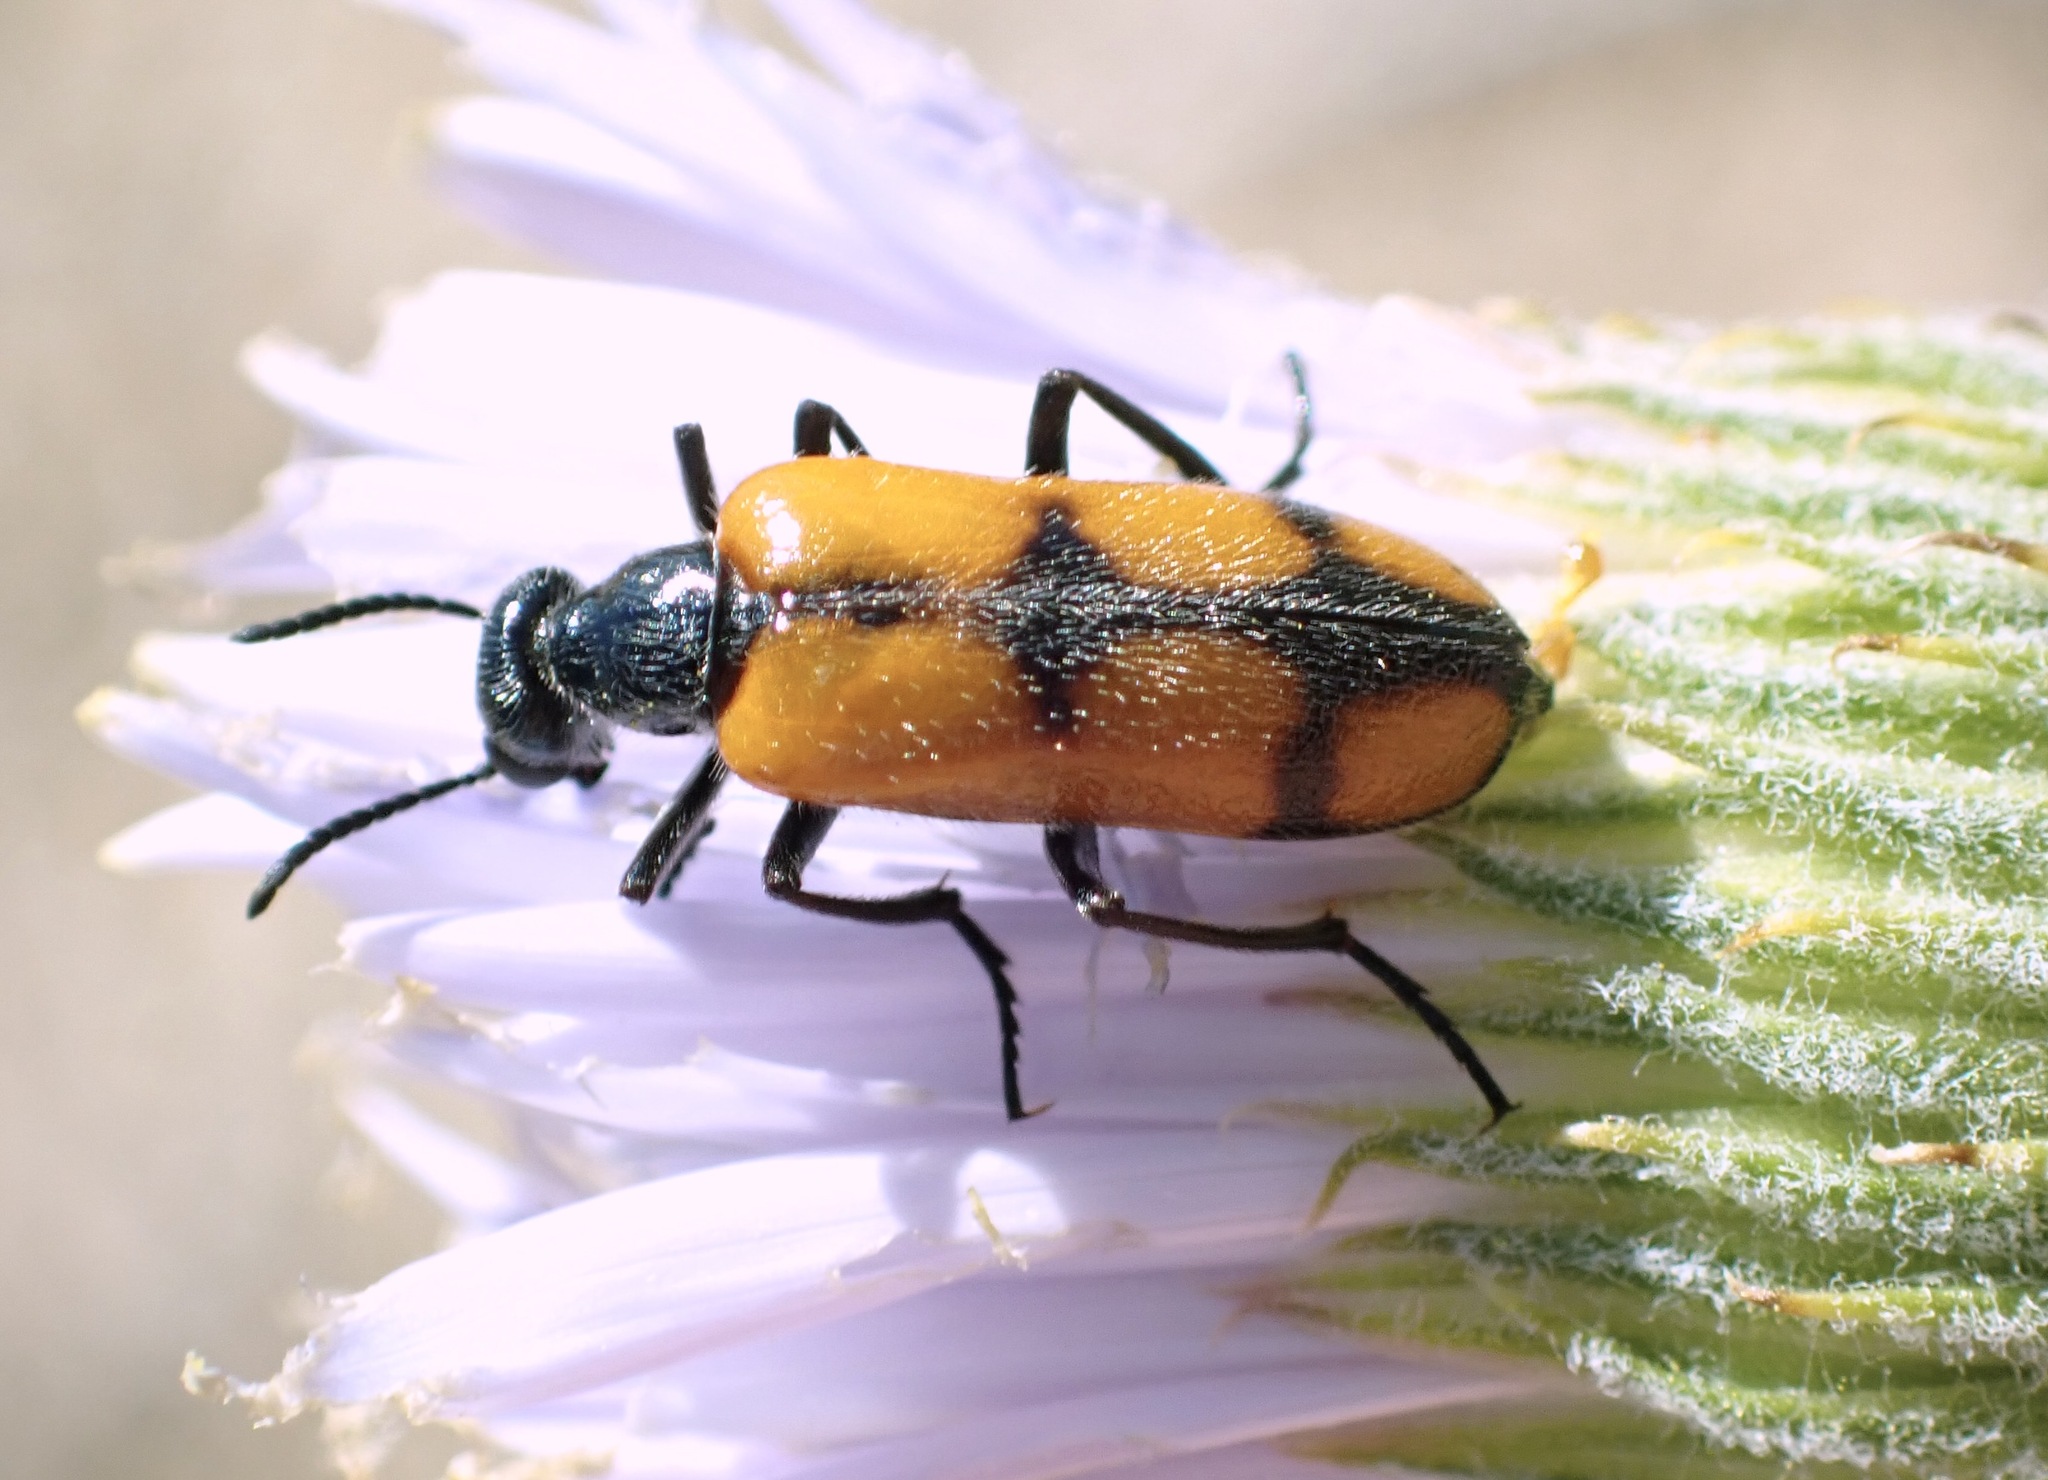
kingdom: Animalia
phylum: Arthropoda
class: Insecta
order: Coleoptera
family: Meloidae
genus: Eupompha
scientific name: Eupompha elegans
